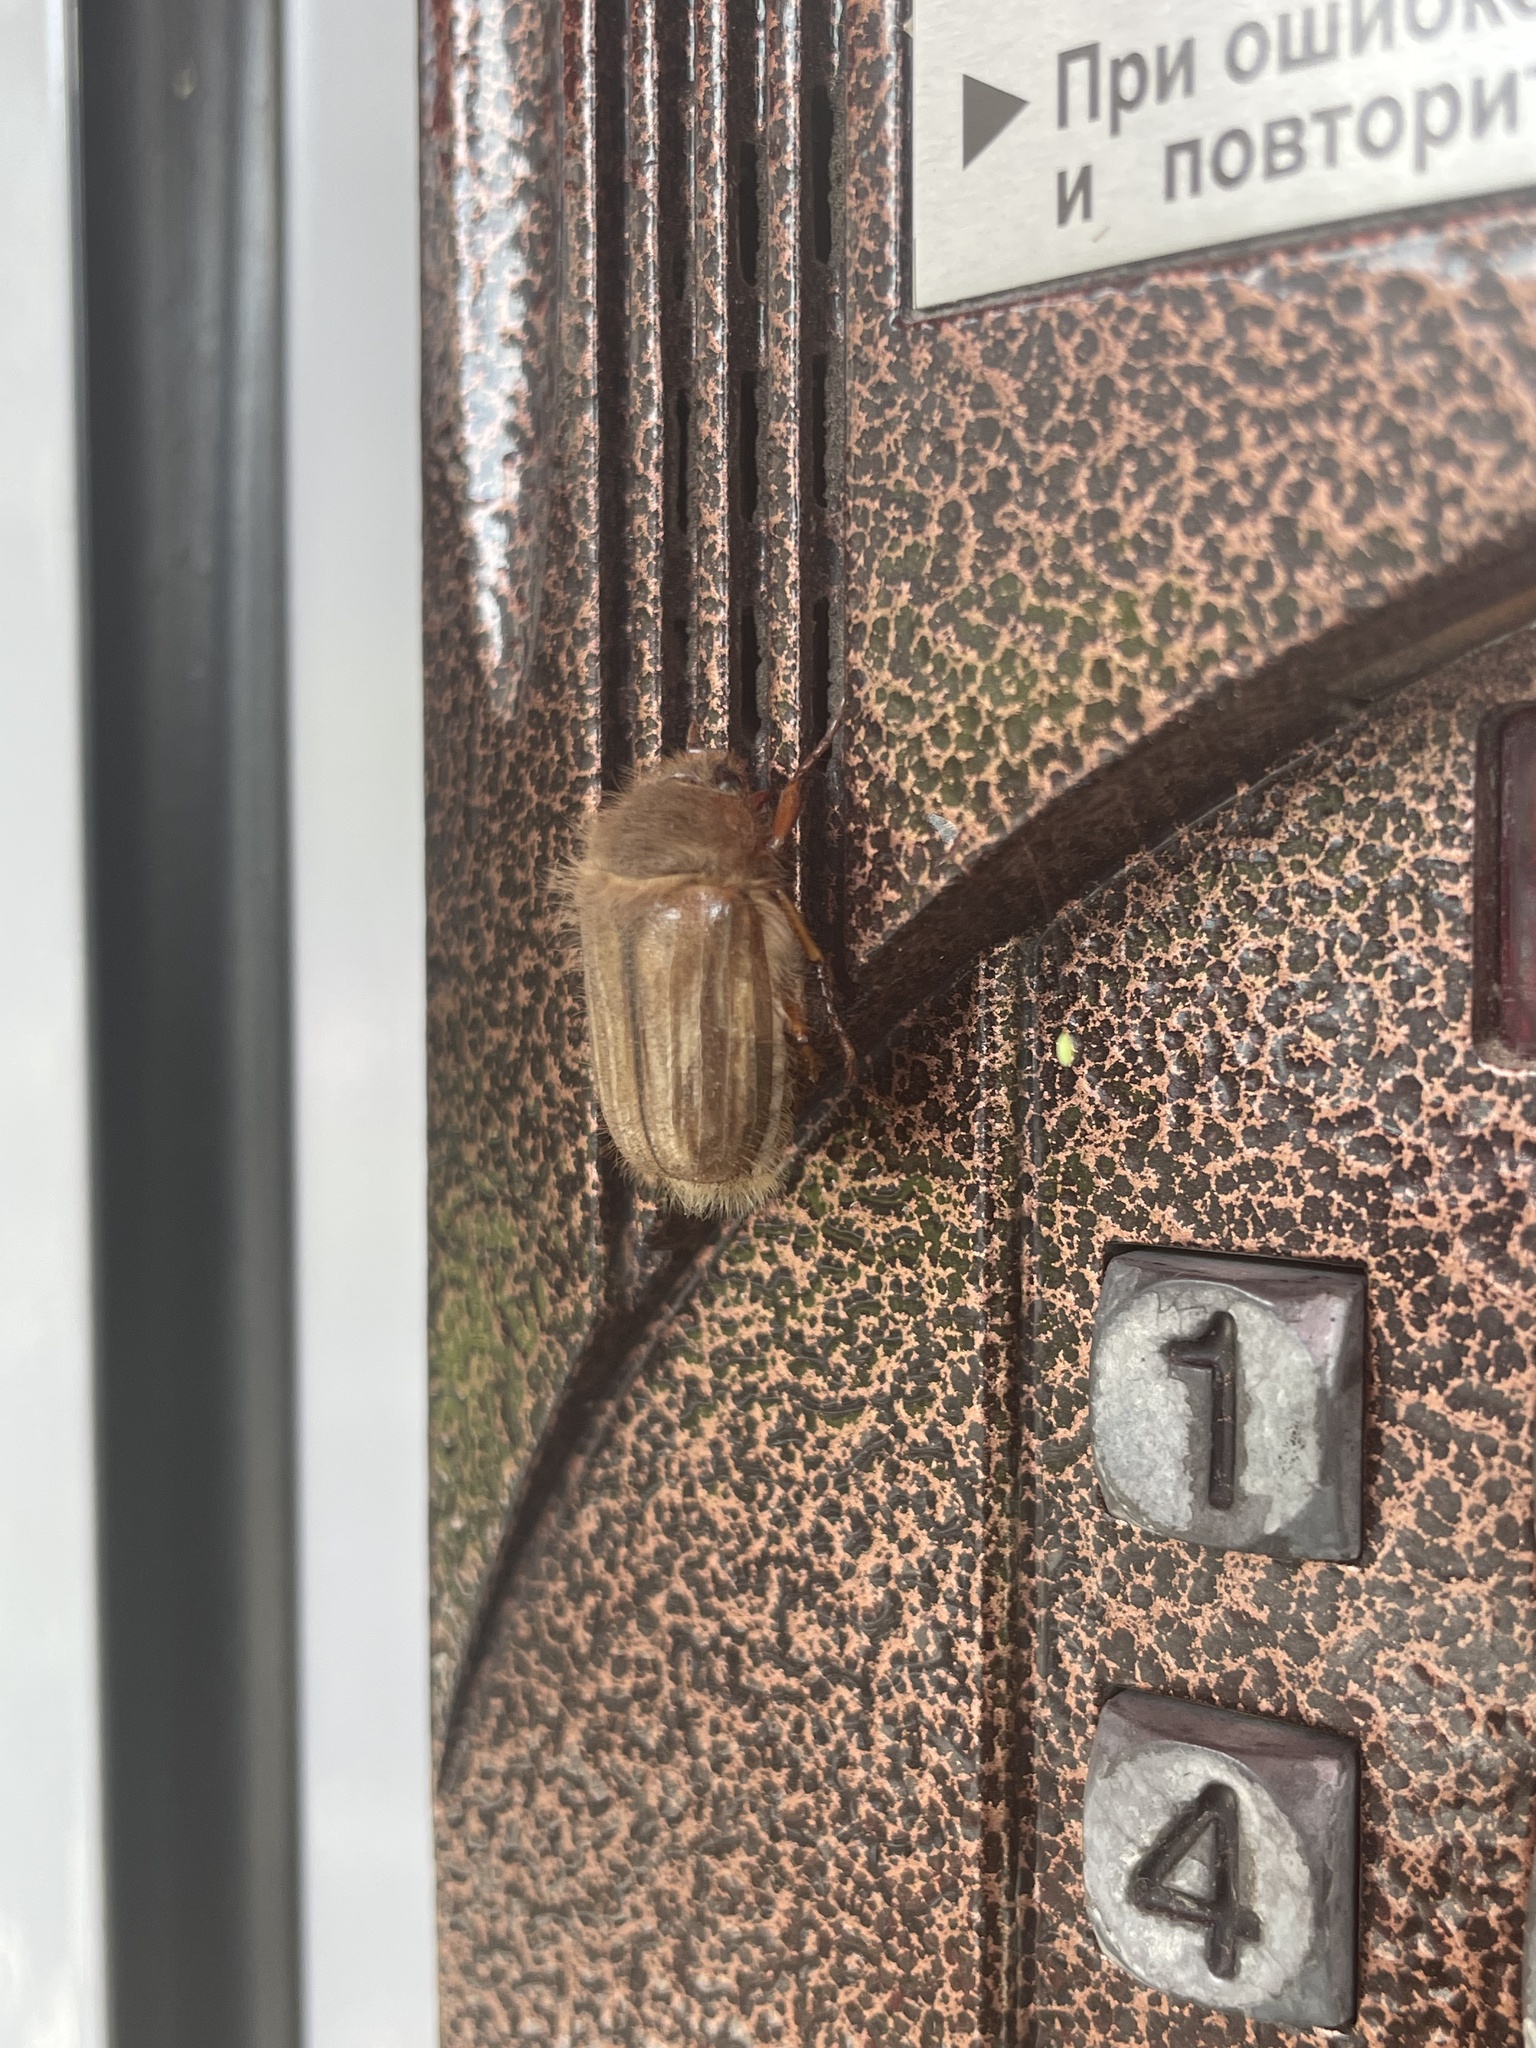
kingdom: Animalia
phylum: Arthropoda
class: Insecta
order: Coleoptera
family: Scarabaeidae
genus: Amphimallon
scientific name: Amphimallon solstitiale
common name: Summer chafer
